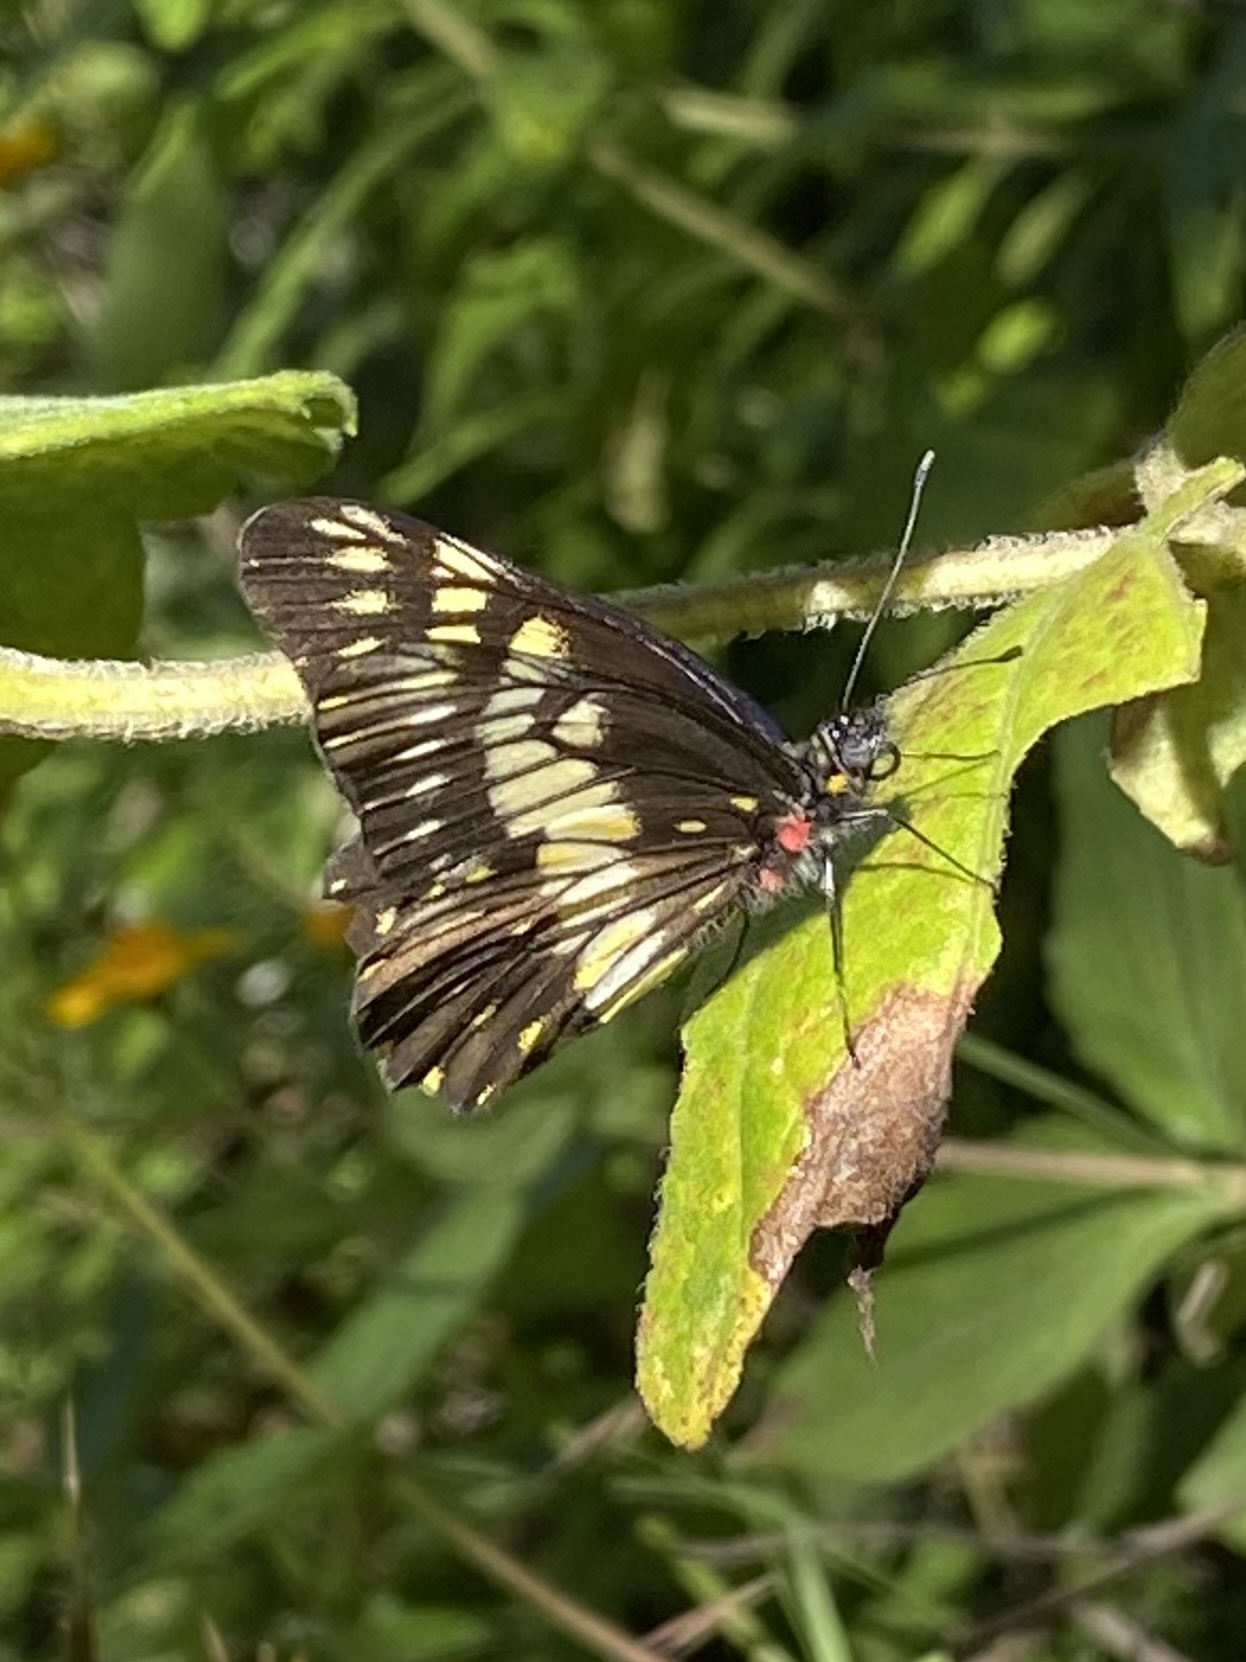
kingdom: Animalia
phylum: Arthropoda
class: Insecta
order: Lepidoptera
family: Pieridae
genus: Archonias
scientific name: Archonias nimbice
